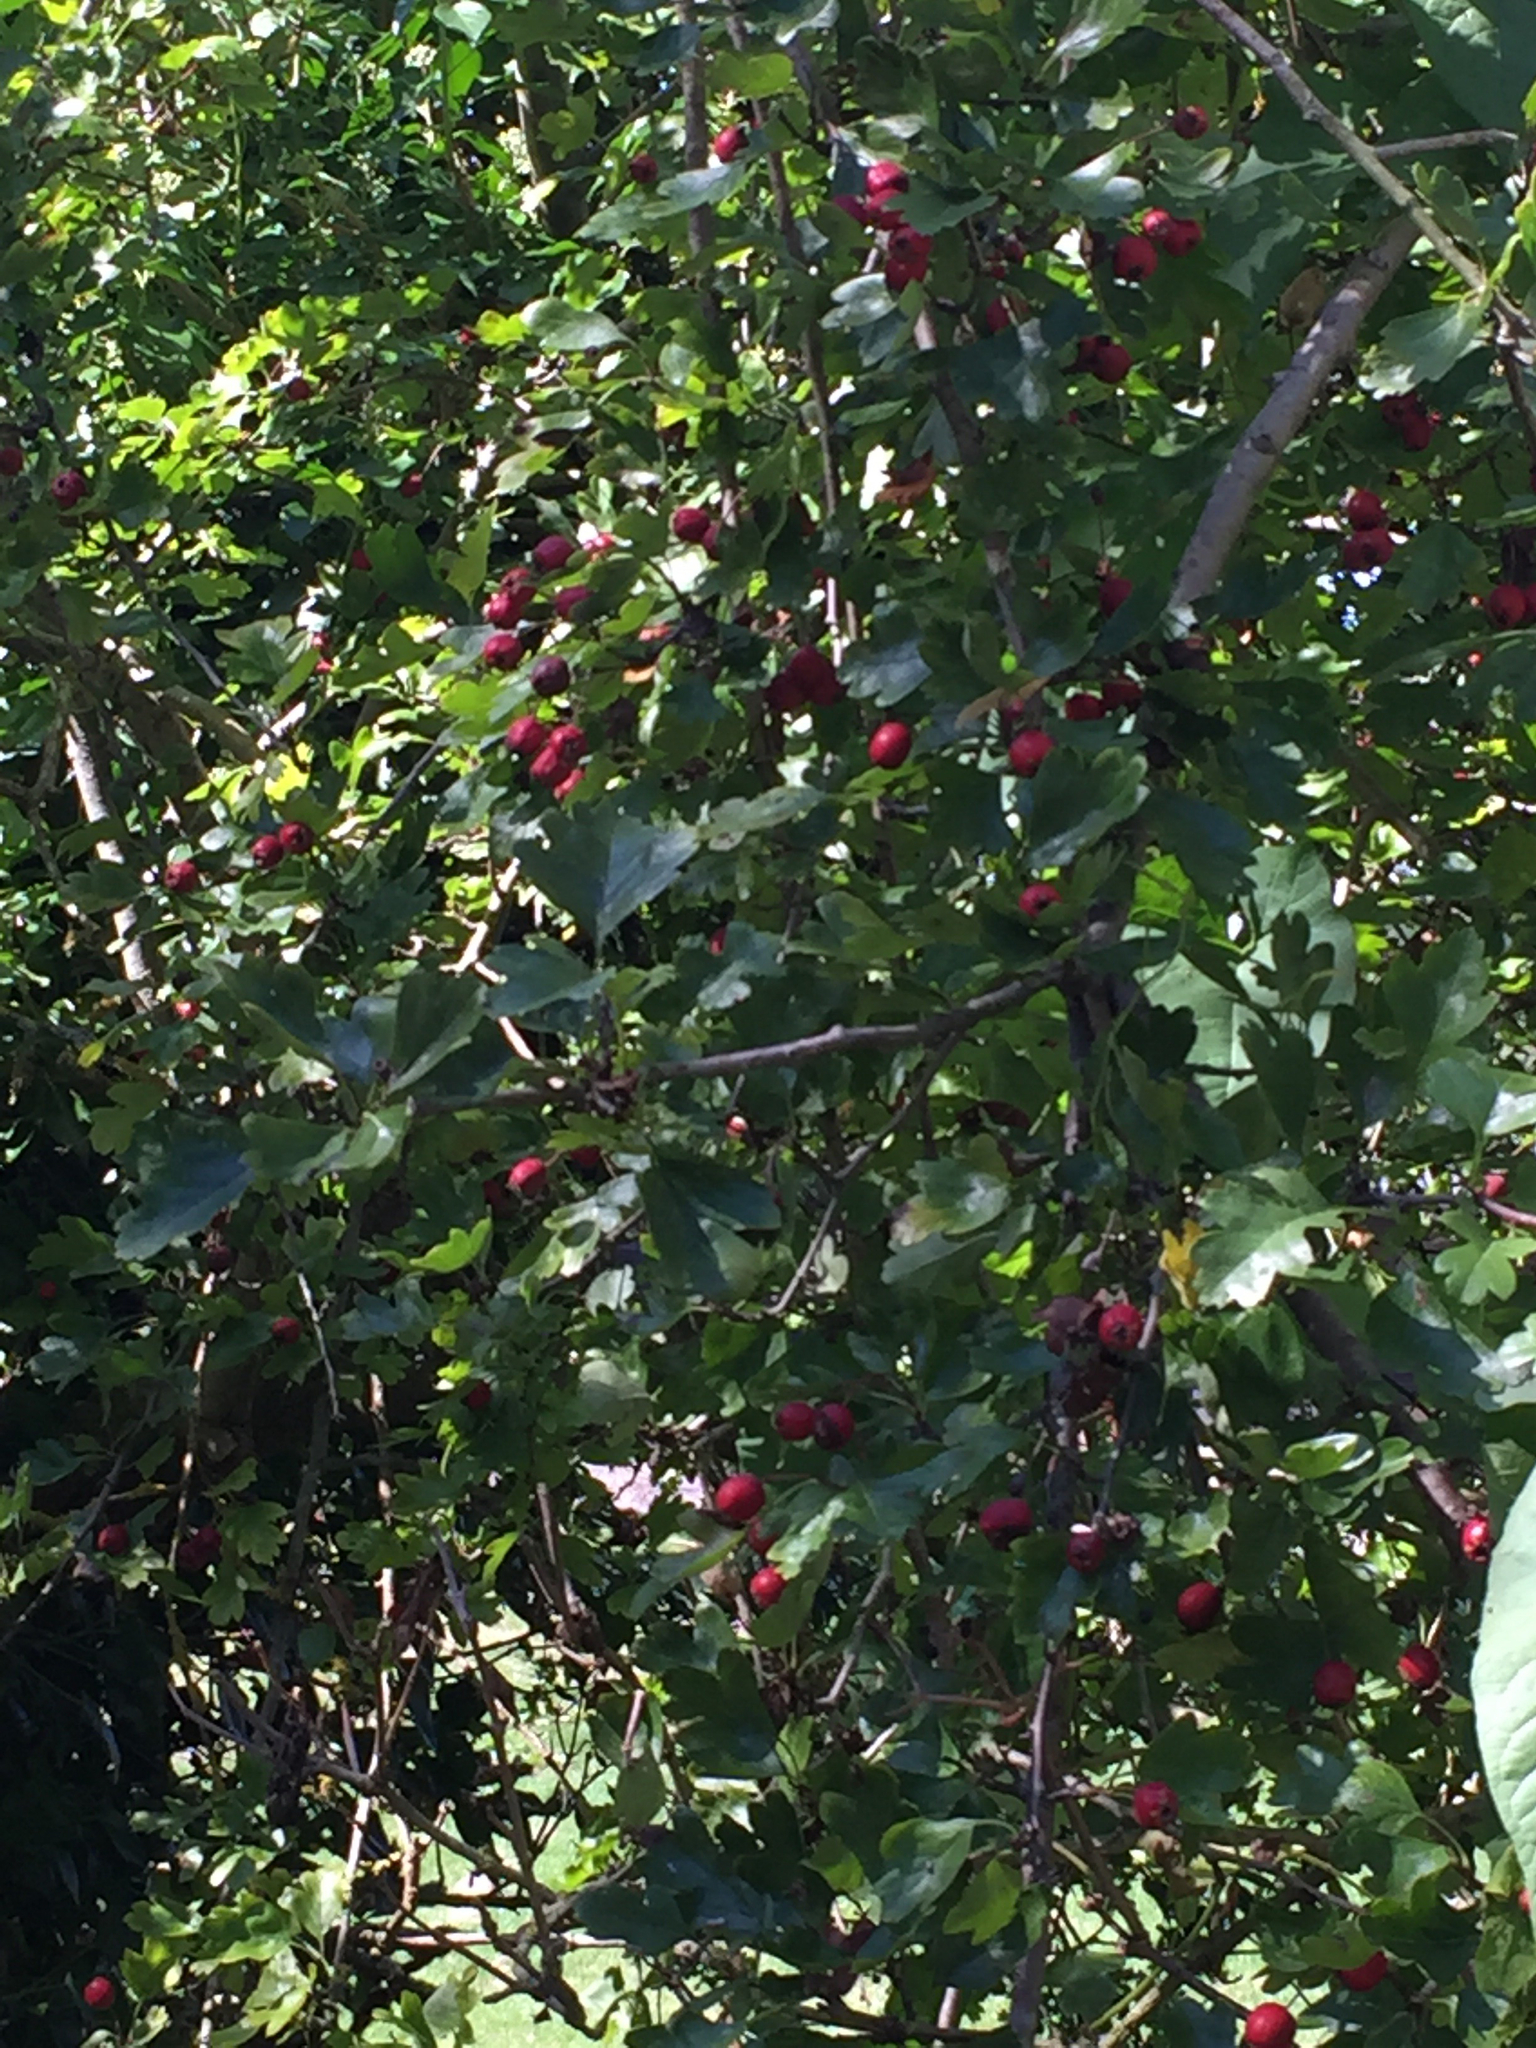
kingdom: Plantae
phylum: Tracheophyta
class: Magnoliopsida
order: Rosales
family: Rosaceae
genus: Crataegus
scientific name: Crataegus monogyna
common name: Hawthorn
